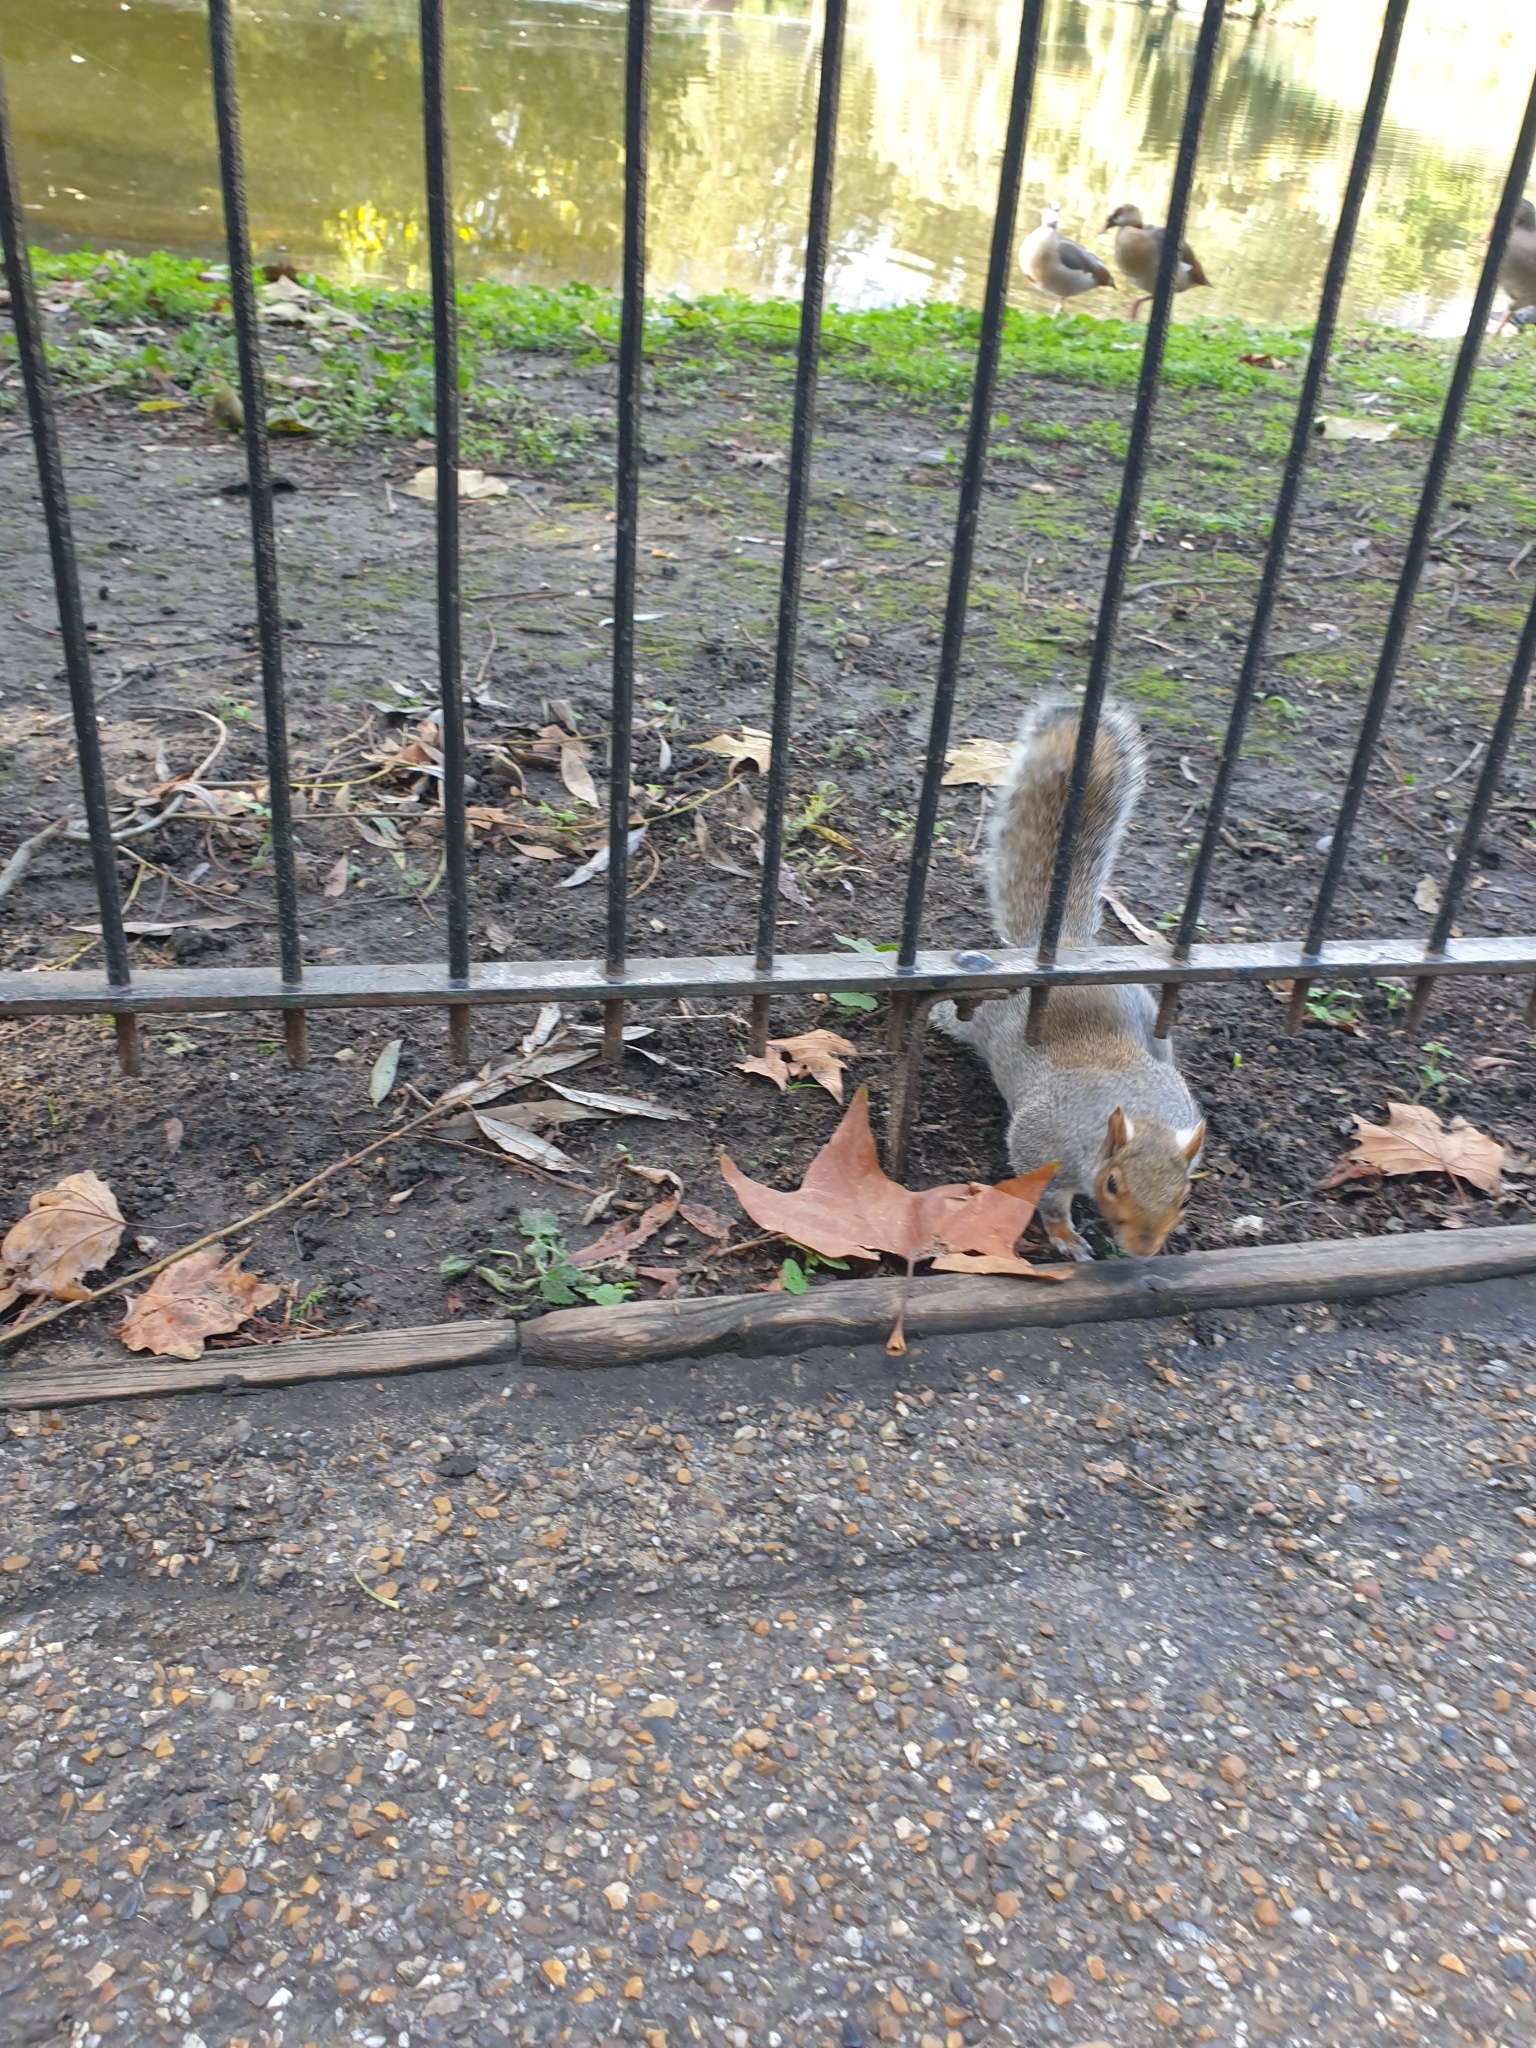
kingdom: Animalia
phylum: Chordata
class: Mammalia
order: Rodentia
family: Sciuridae
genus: Sciurus
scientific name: Sciurus carolinensis
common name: Eastern gray squirrel
